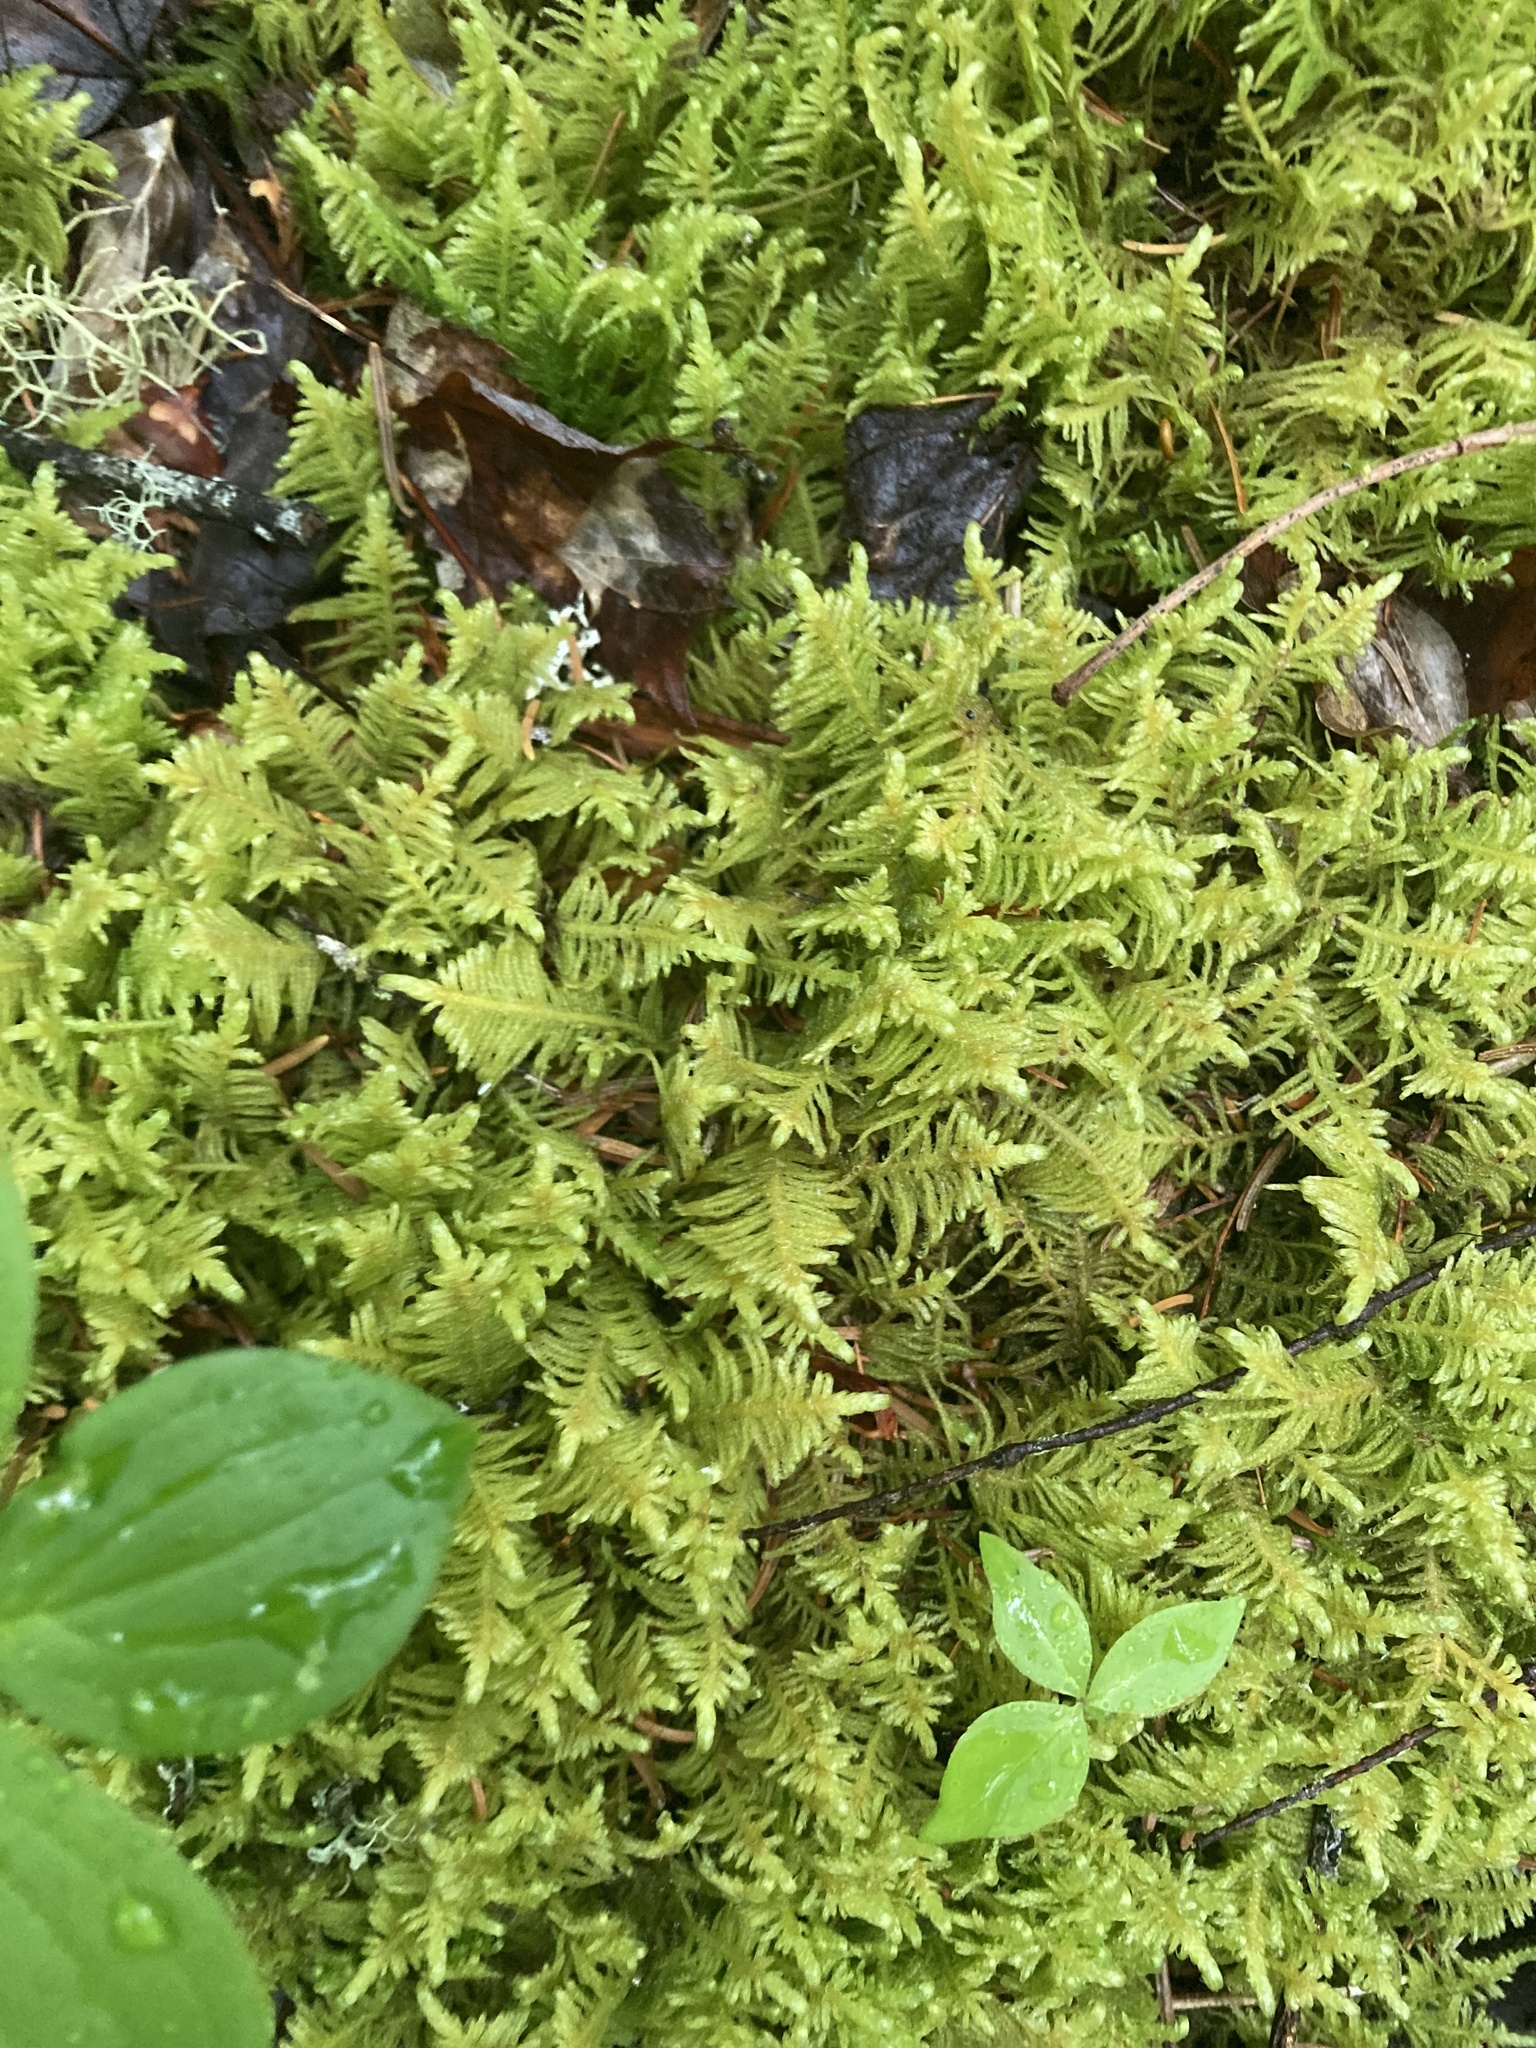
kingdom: Plantae
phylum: Bryophyta
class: Bryopsida
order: Hypnales
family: Pylaisiaceae
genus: Ptilium
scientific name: Ptilium crista-castrensis
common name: Knight's plume moss
